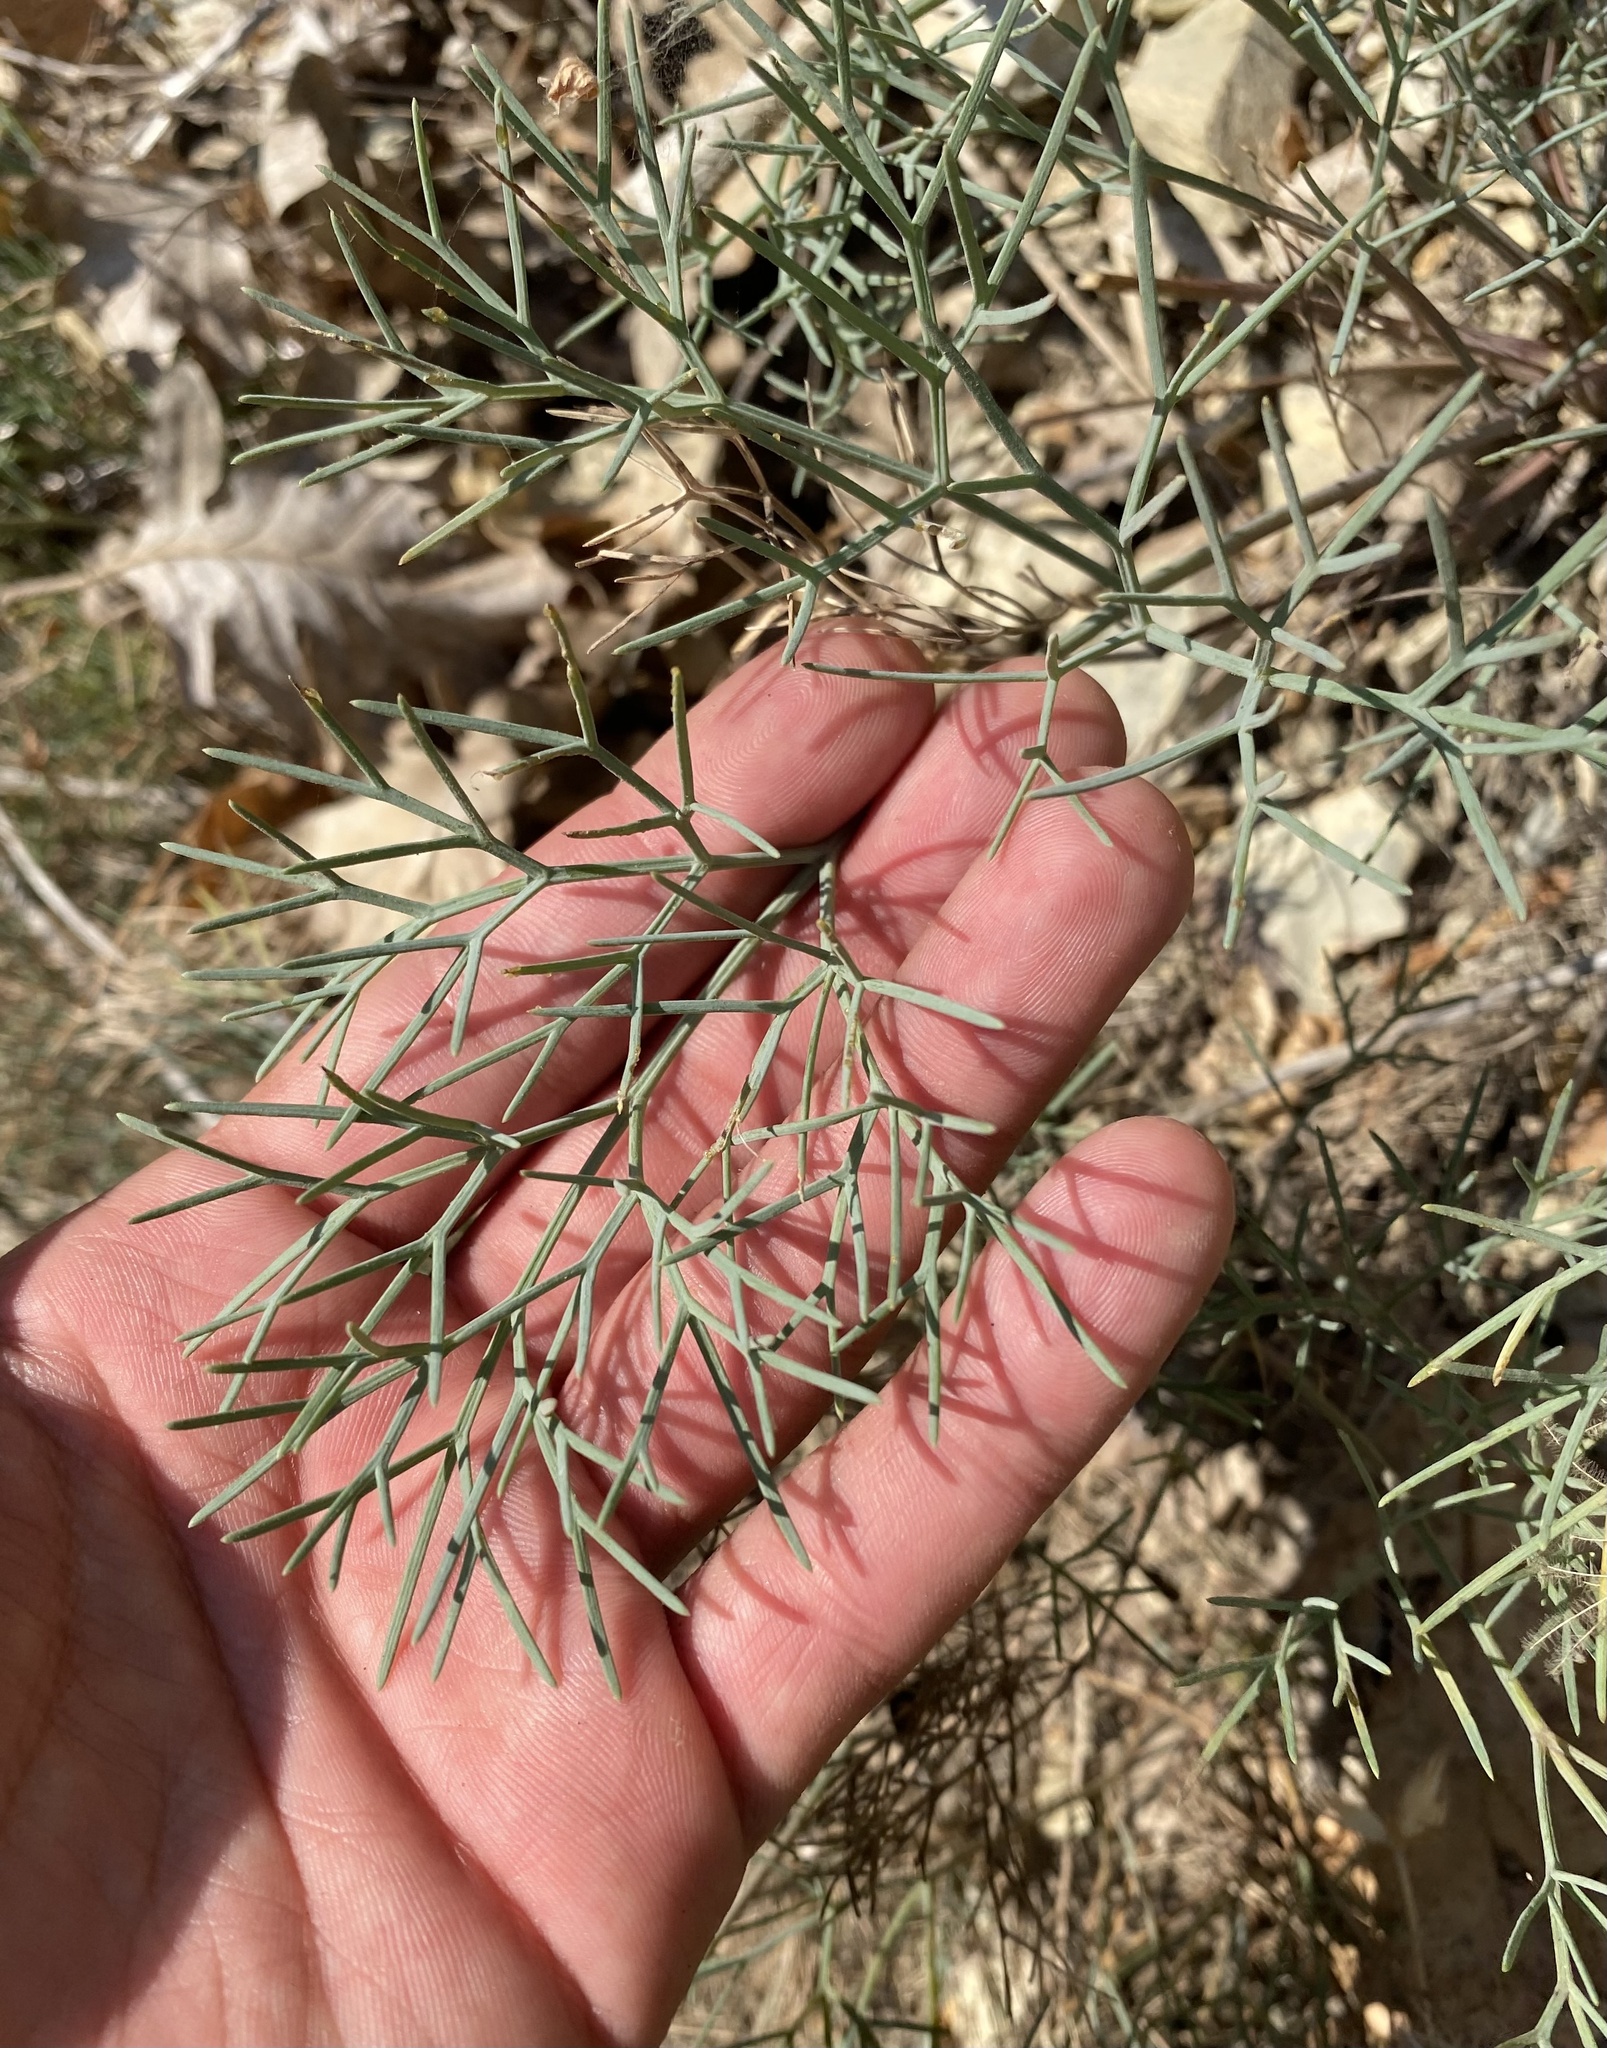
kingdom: Plantae
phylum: Tracheophyta
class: Magnoliopsida
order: Apiales
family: Apiaceae
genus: Seseli
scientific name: Seseli ponticum
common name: Pontic seseli
